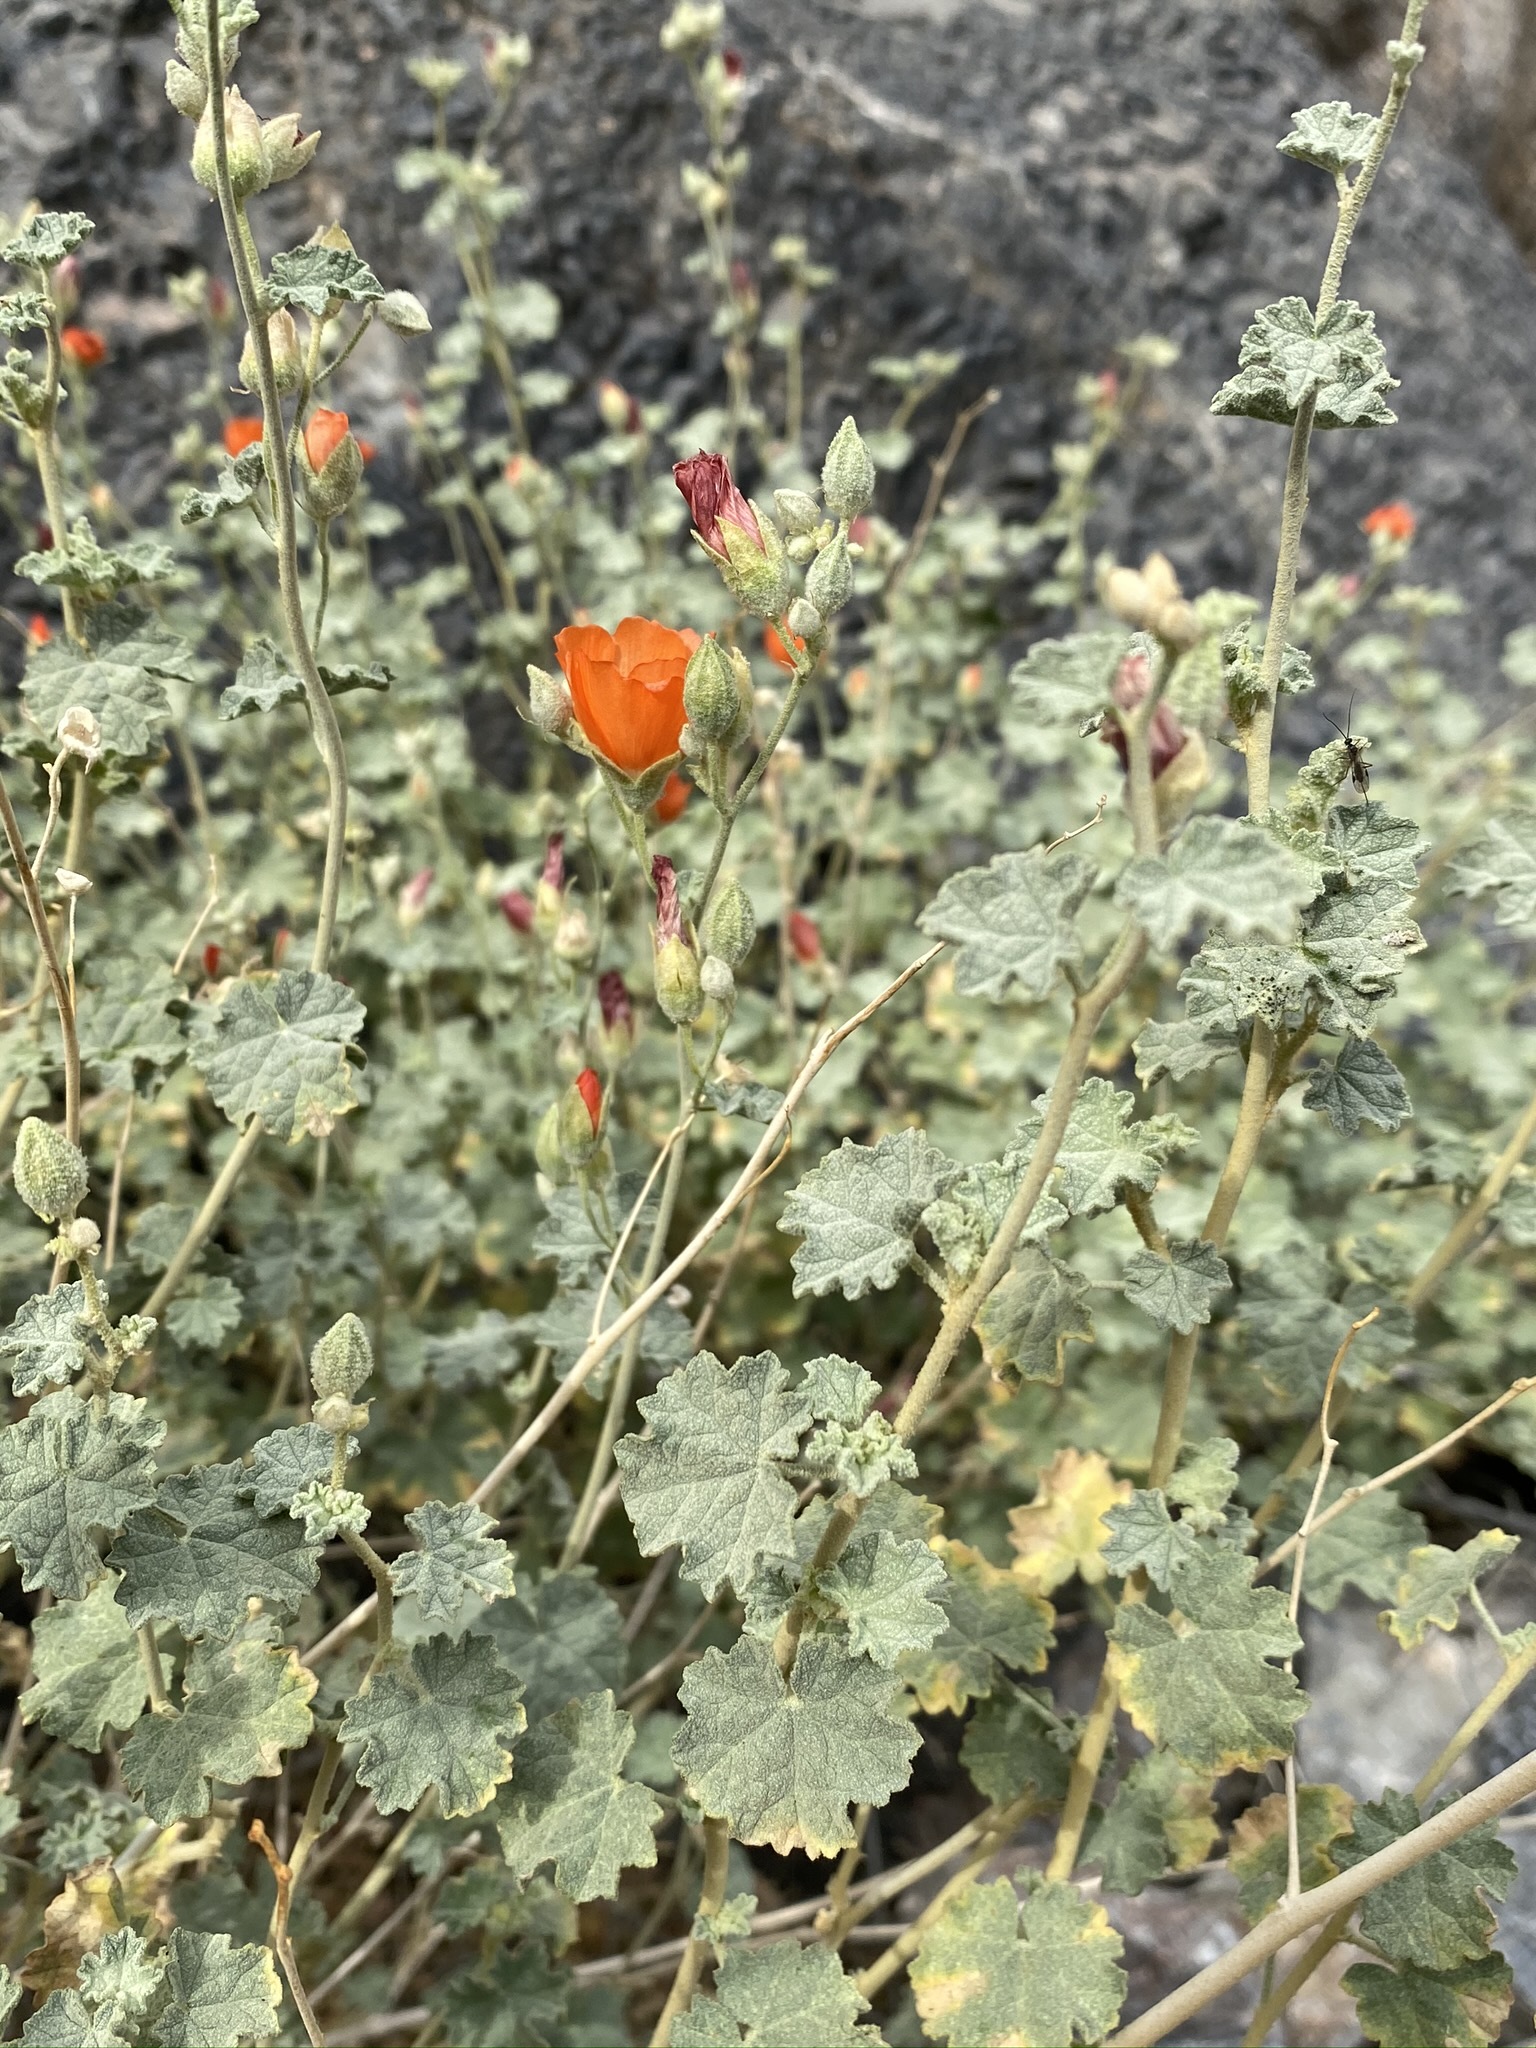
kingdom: Plantae
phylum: Tracheophyta
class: Magnoliopsida
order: Malvales
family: Malvaceae
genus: Sphaeralcea
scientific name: Sphaeralcea ambigua
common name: Apricot globe-mallow
